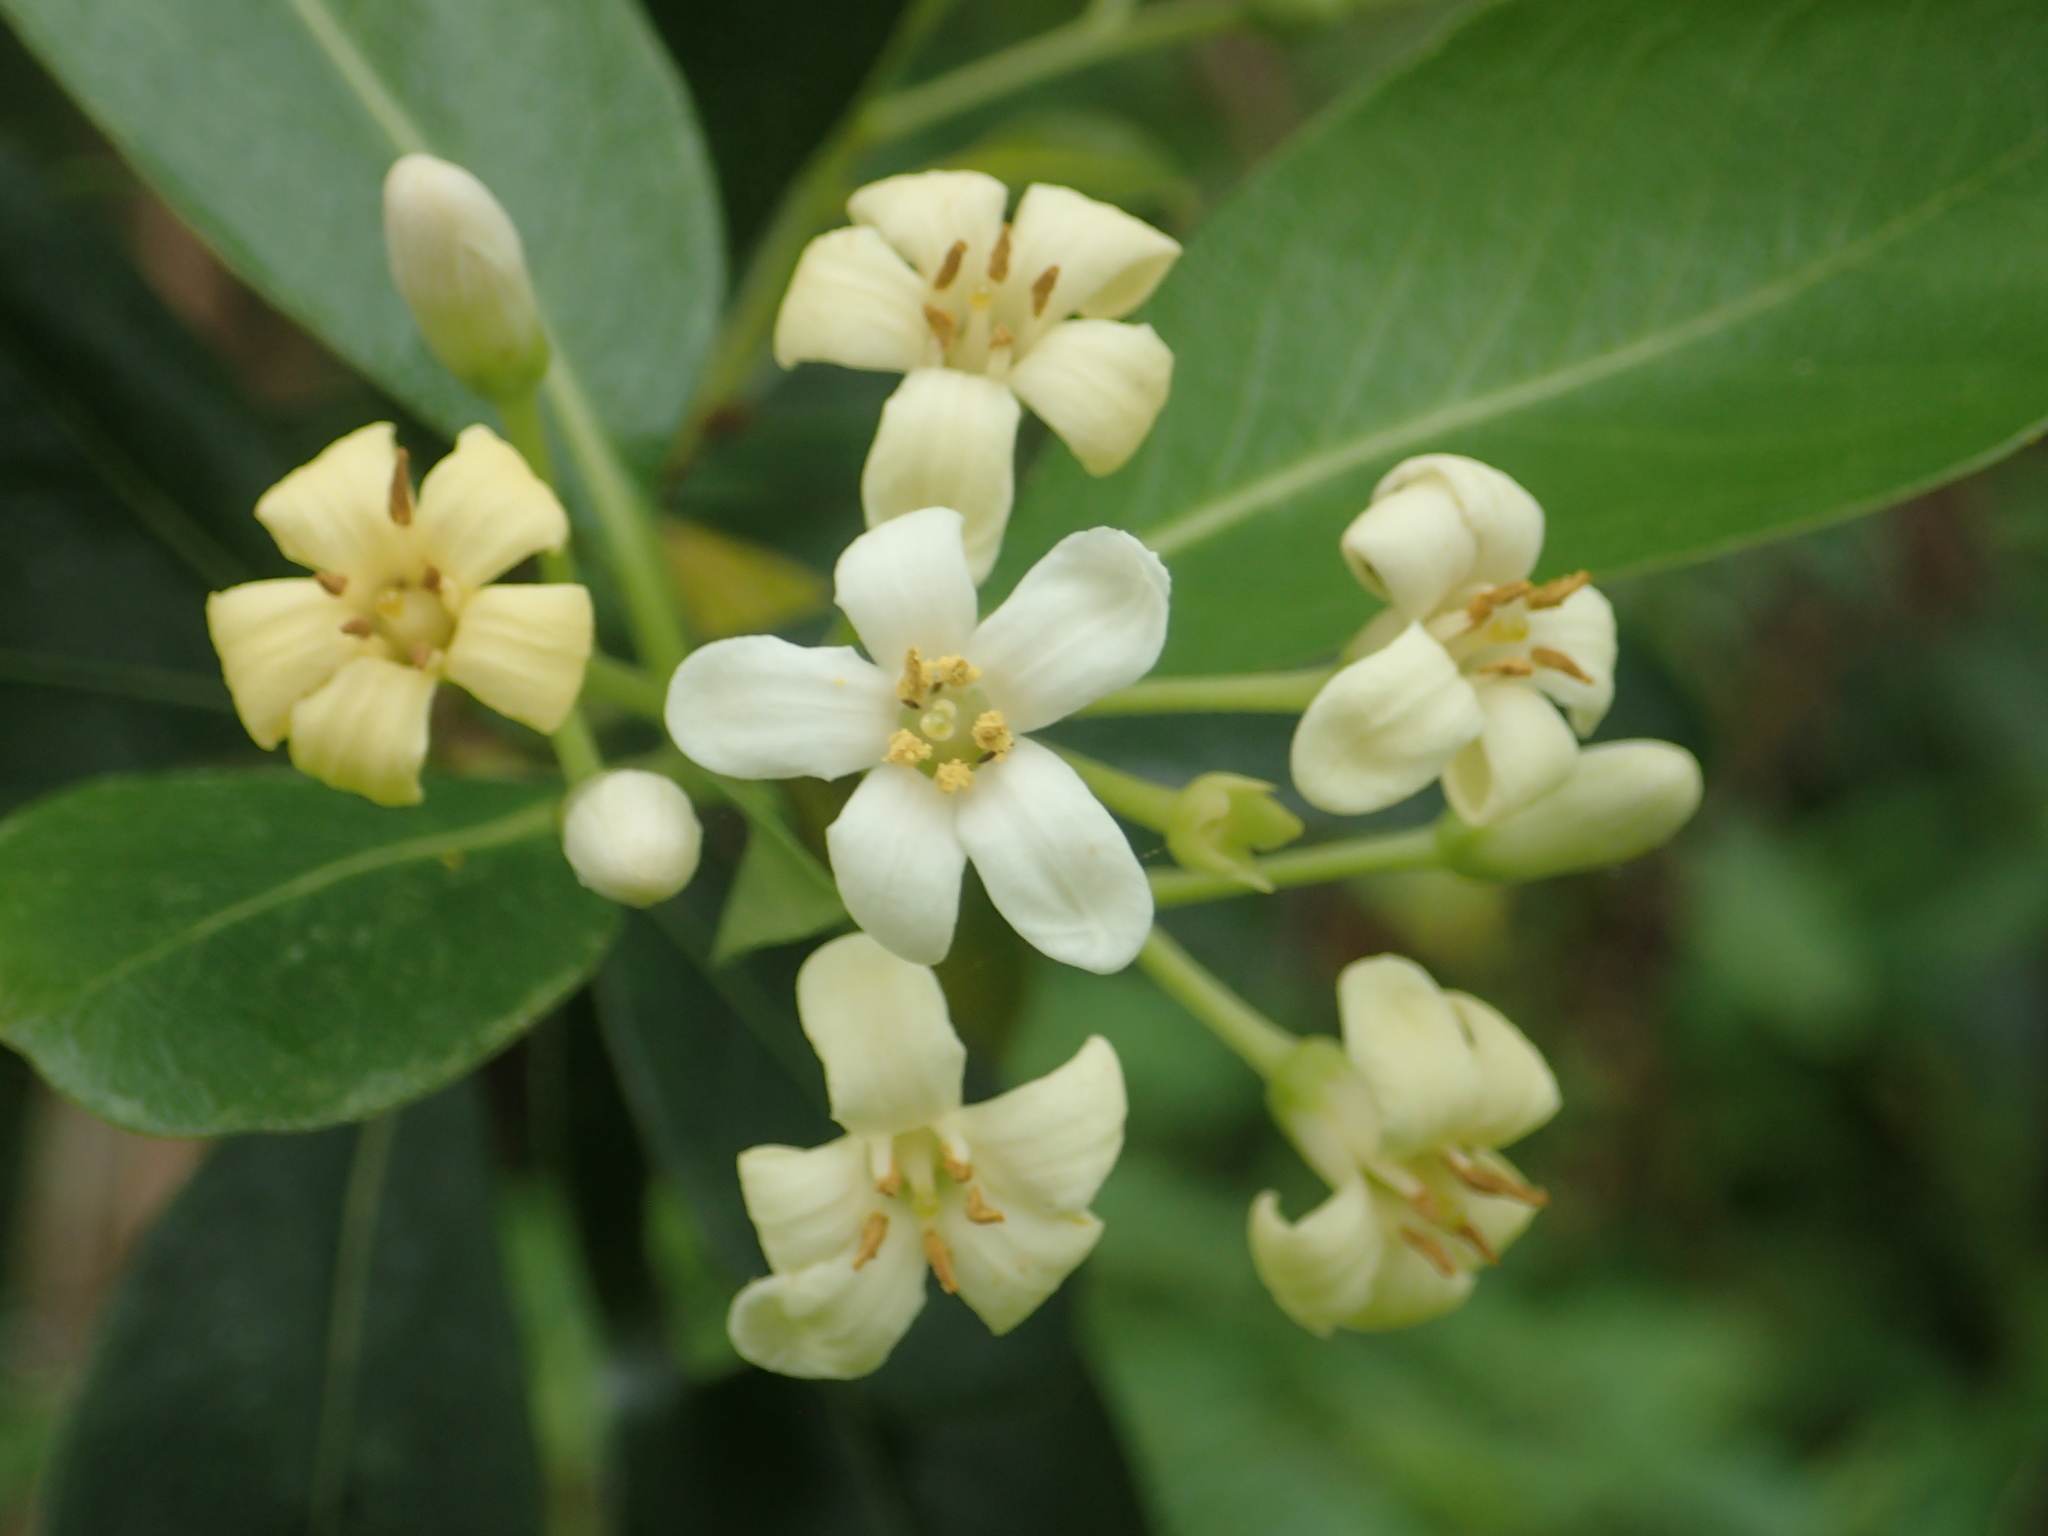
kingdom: Plantae
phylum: Tracheophyta
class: Magnoliopsida
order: Apiales
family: Pittosporaceae
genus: Pittosporum
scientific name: Pittosporum tobira
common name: Japanese cheesewood
